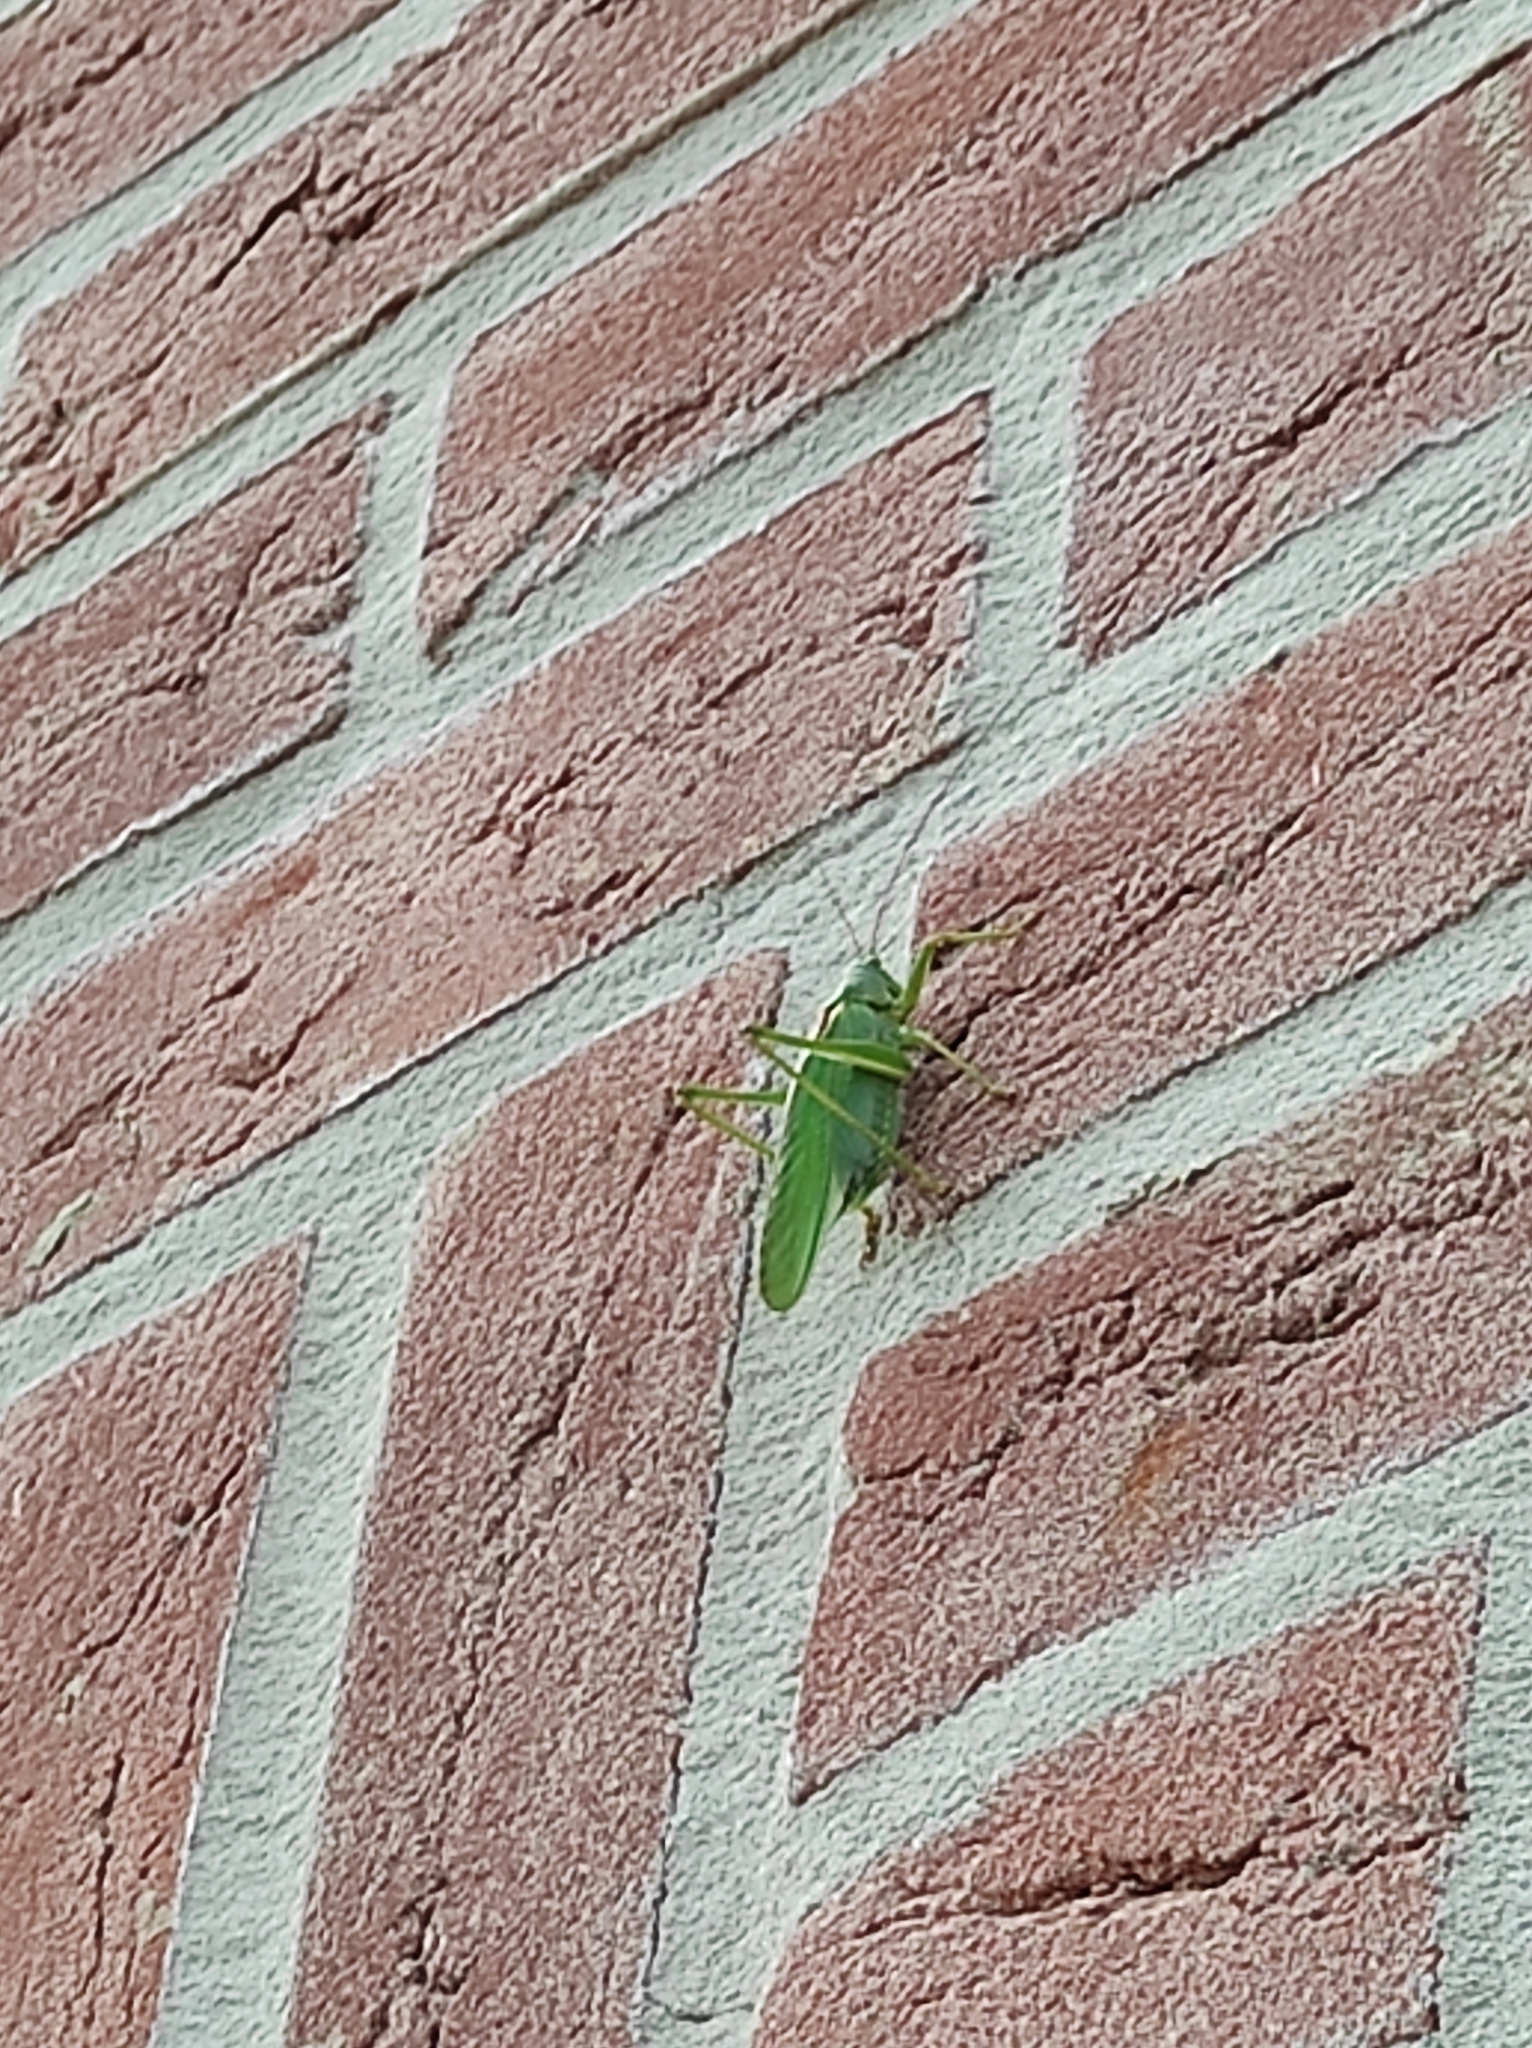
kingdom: Animalia
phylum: Arthropoda
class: Insecta
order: Orthoptera
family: Tettigoniidae
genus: Tettigonia
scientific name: Tettigonia viridissima
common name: Great green bush-cricket
